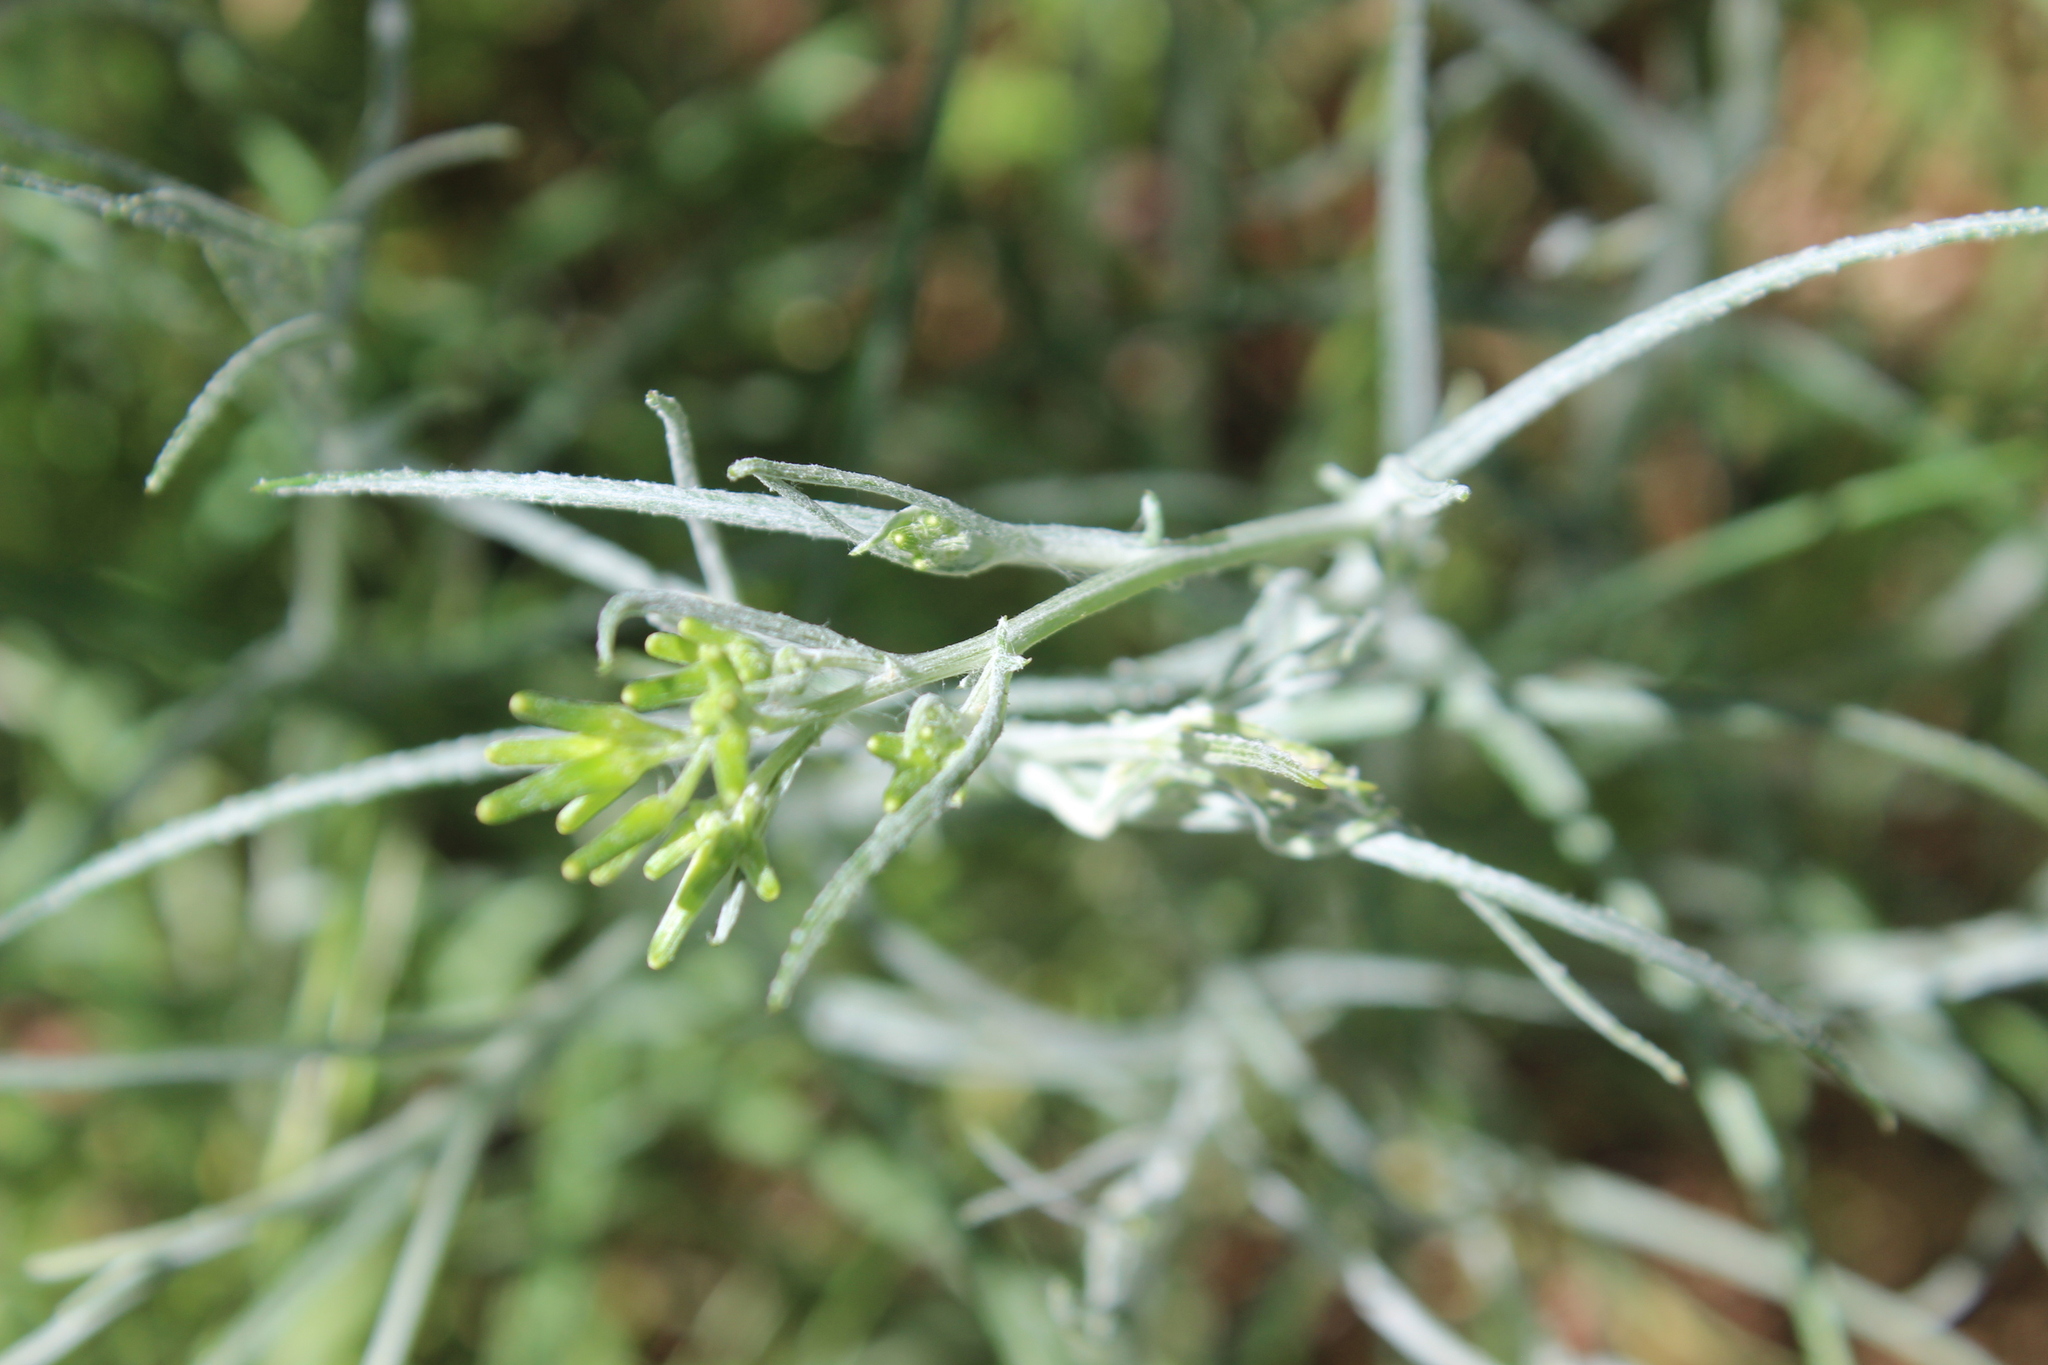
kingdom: Plantae
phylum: Tracheophyta
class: Magnoliopsida
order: Asterales
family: Asteraceae
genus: Senecio
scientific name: Senecio quadridentatus
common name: Cotton fireweed
